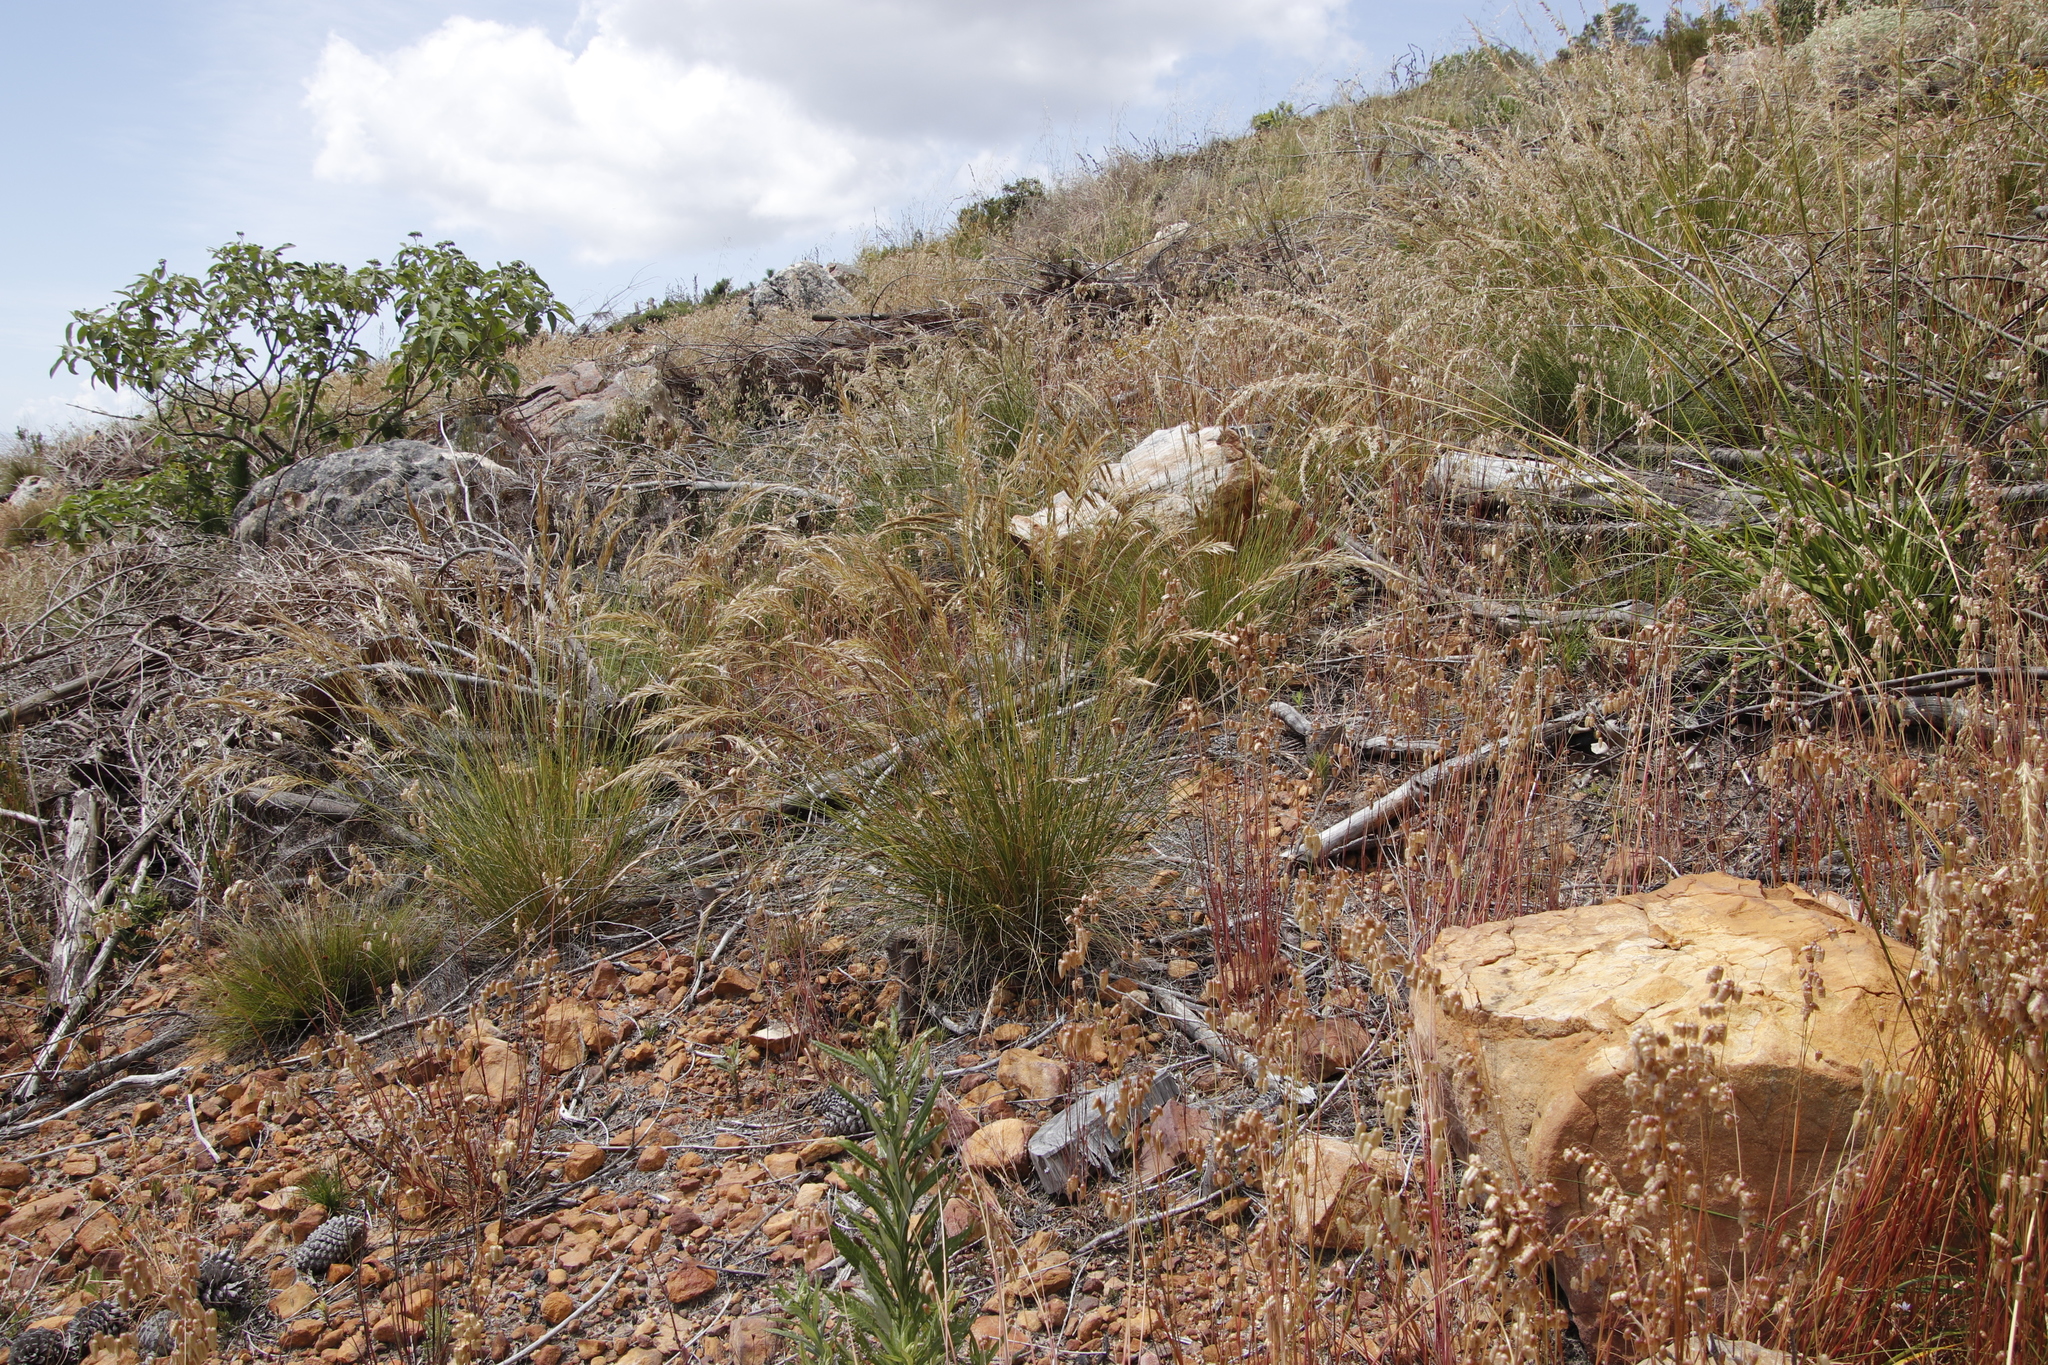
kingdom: Plantae
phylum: Tracheophyta
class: Liliopsida
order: Poales
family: Poaceae
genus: Tenaxia
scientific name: Tenaxia stricta
